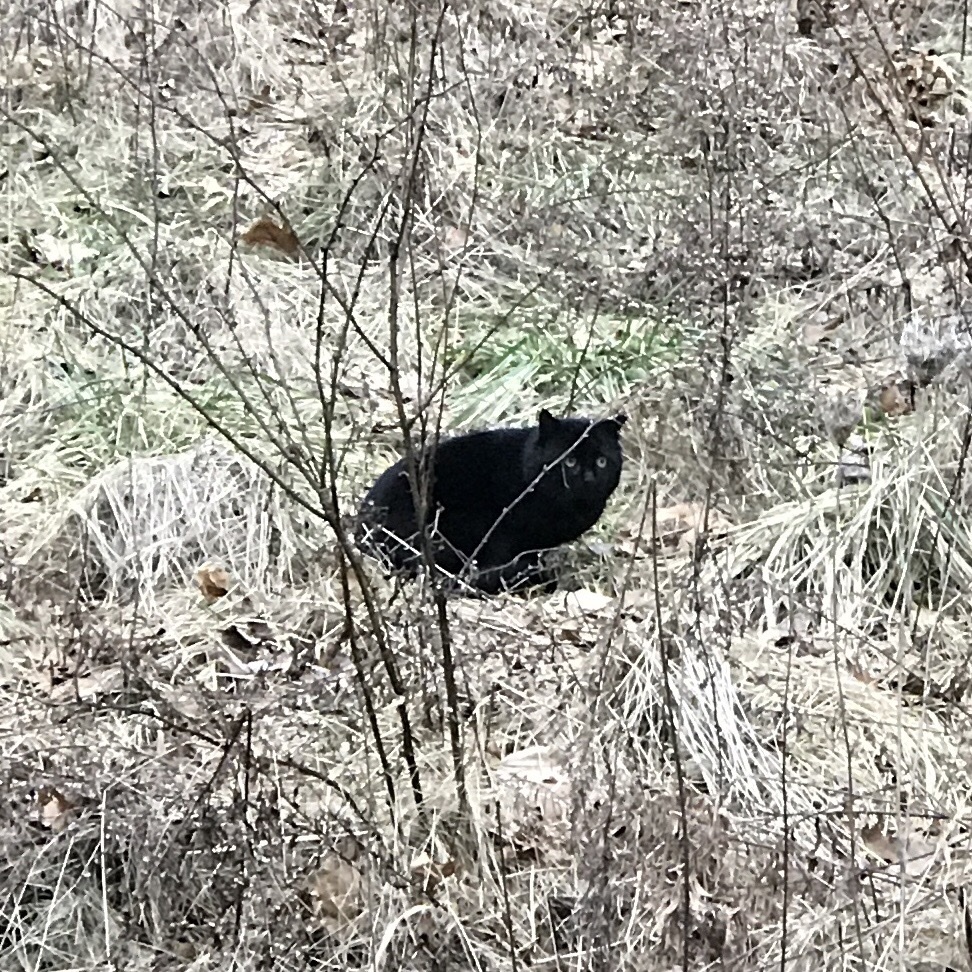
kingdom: Animalia
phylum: Chordata
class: Mammalia
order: Carnivora
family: Felidae
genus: Felis
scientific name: Felis catus
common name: Domestic cat
